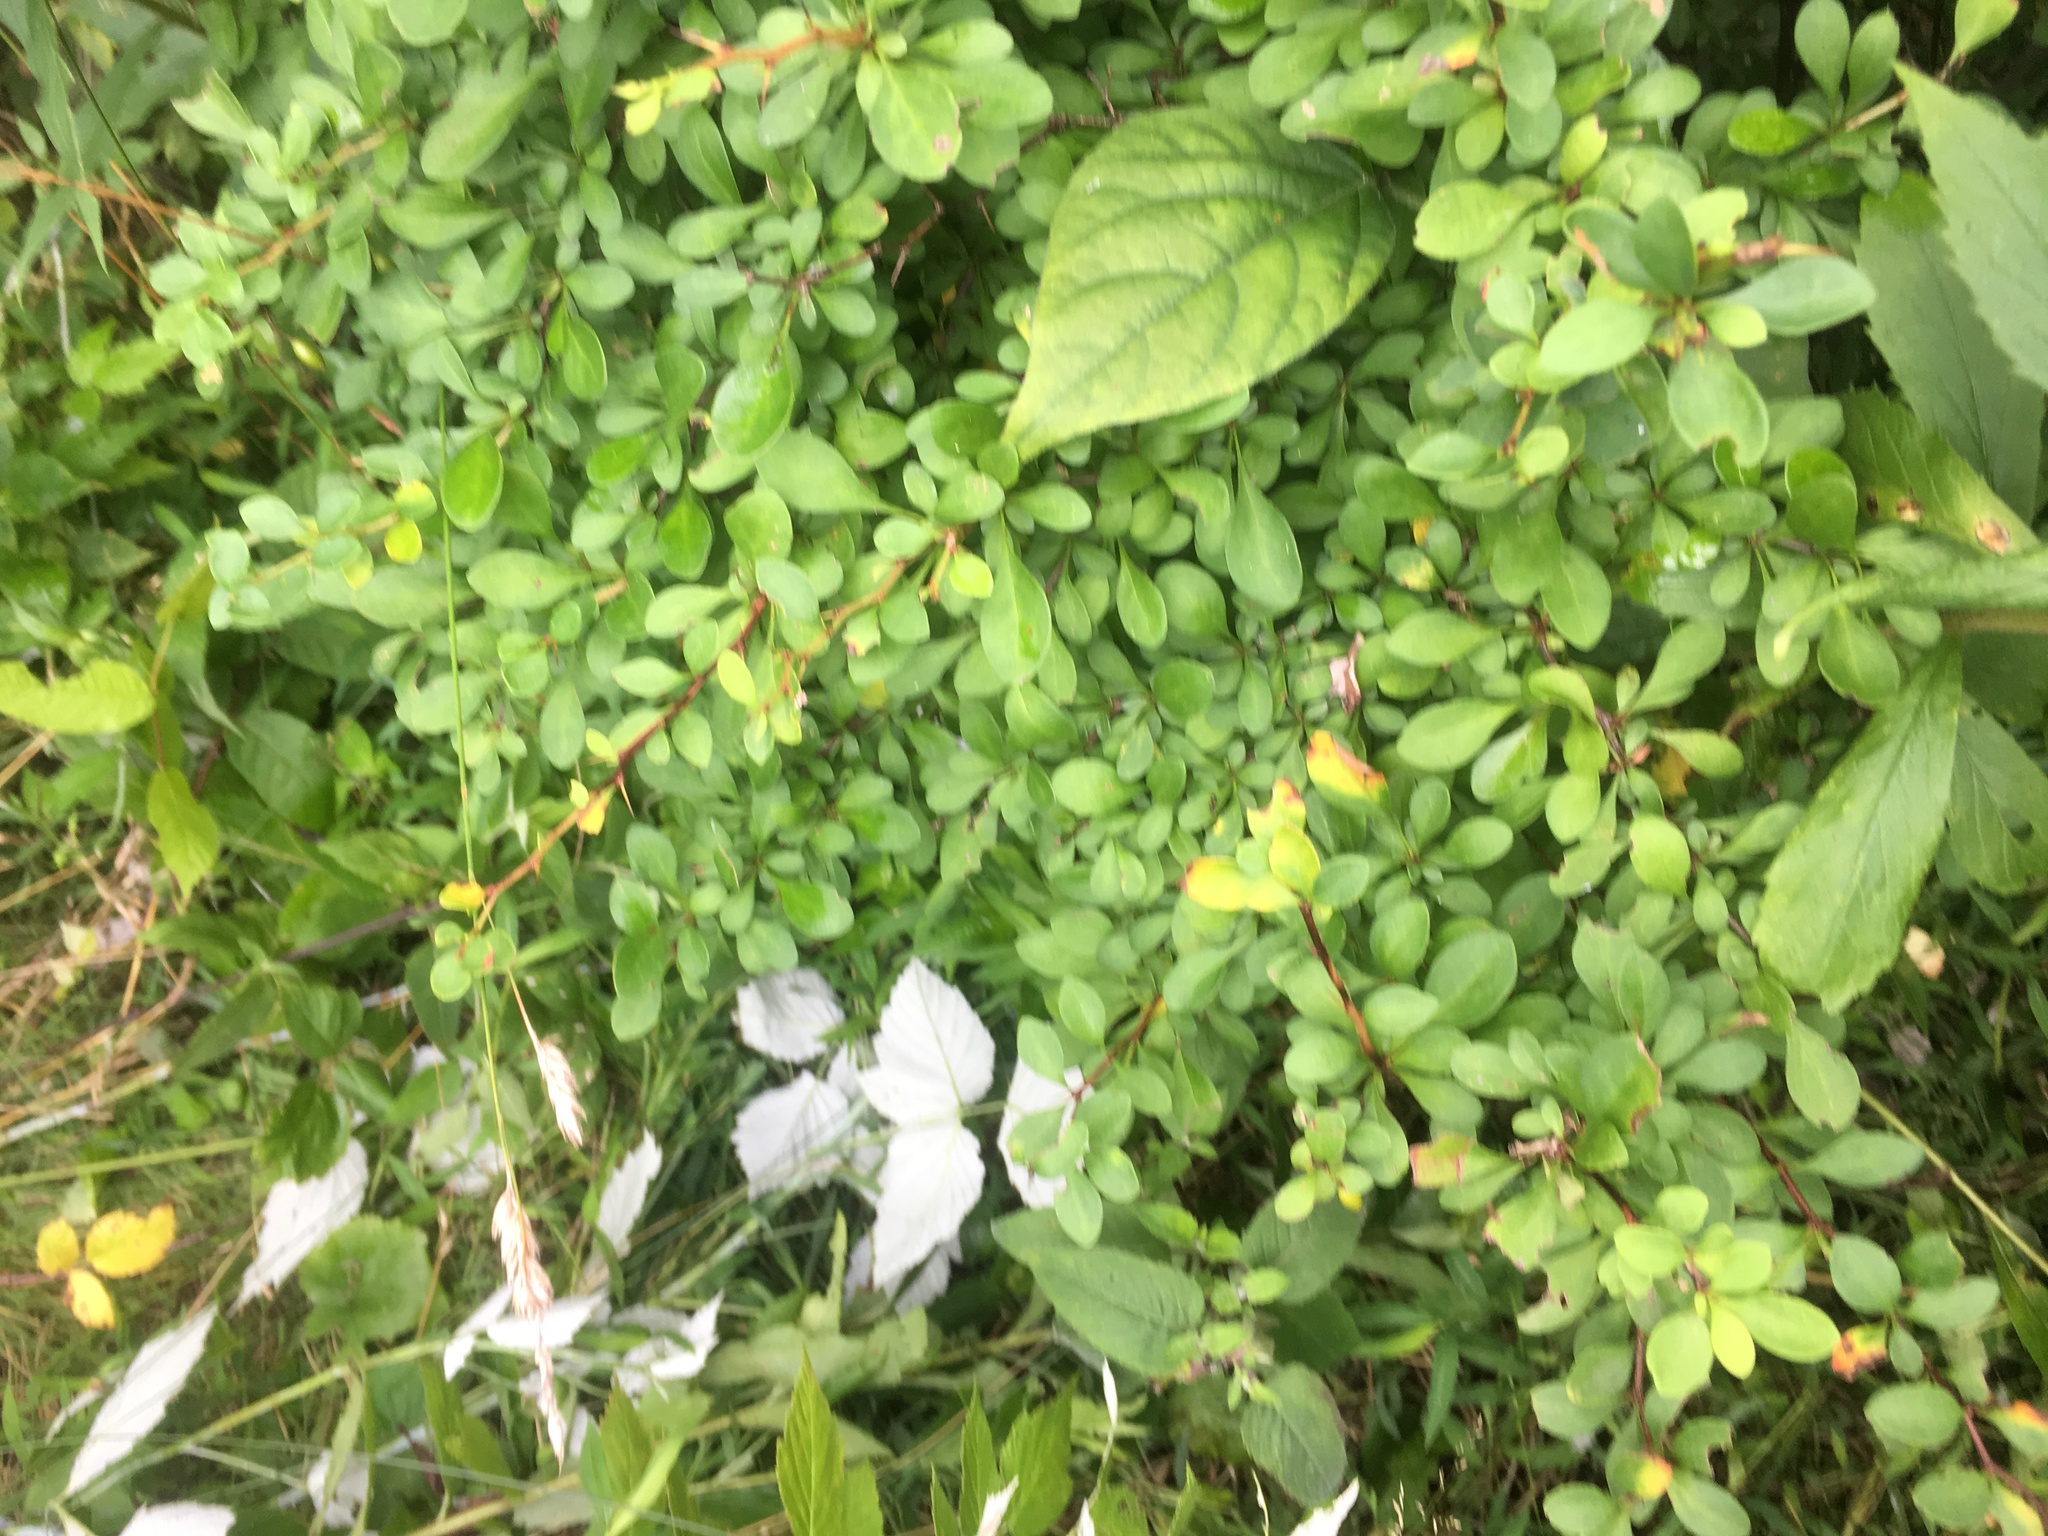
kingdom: Plantae
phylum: Tracheophyta
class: Magnoliopsida
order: Ranunculales
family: Berberidaceae
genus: Berberis
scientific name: Berberis thunbergii
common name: Japanese barberry
